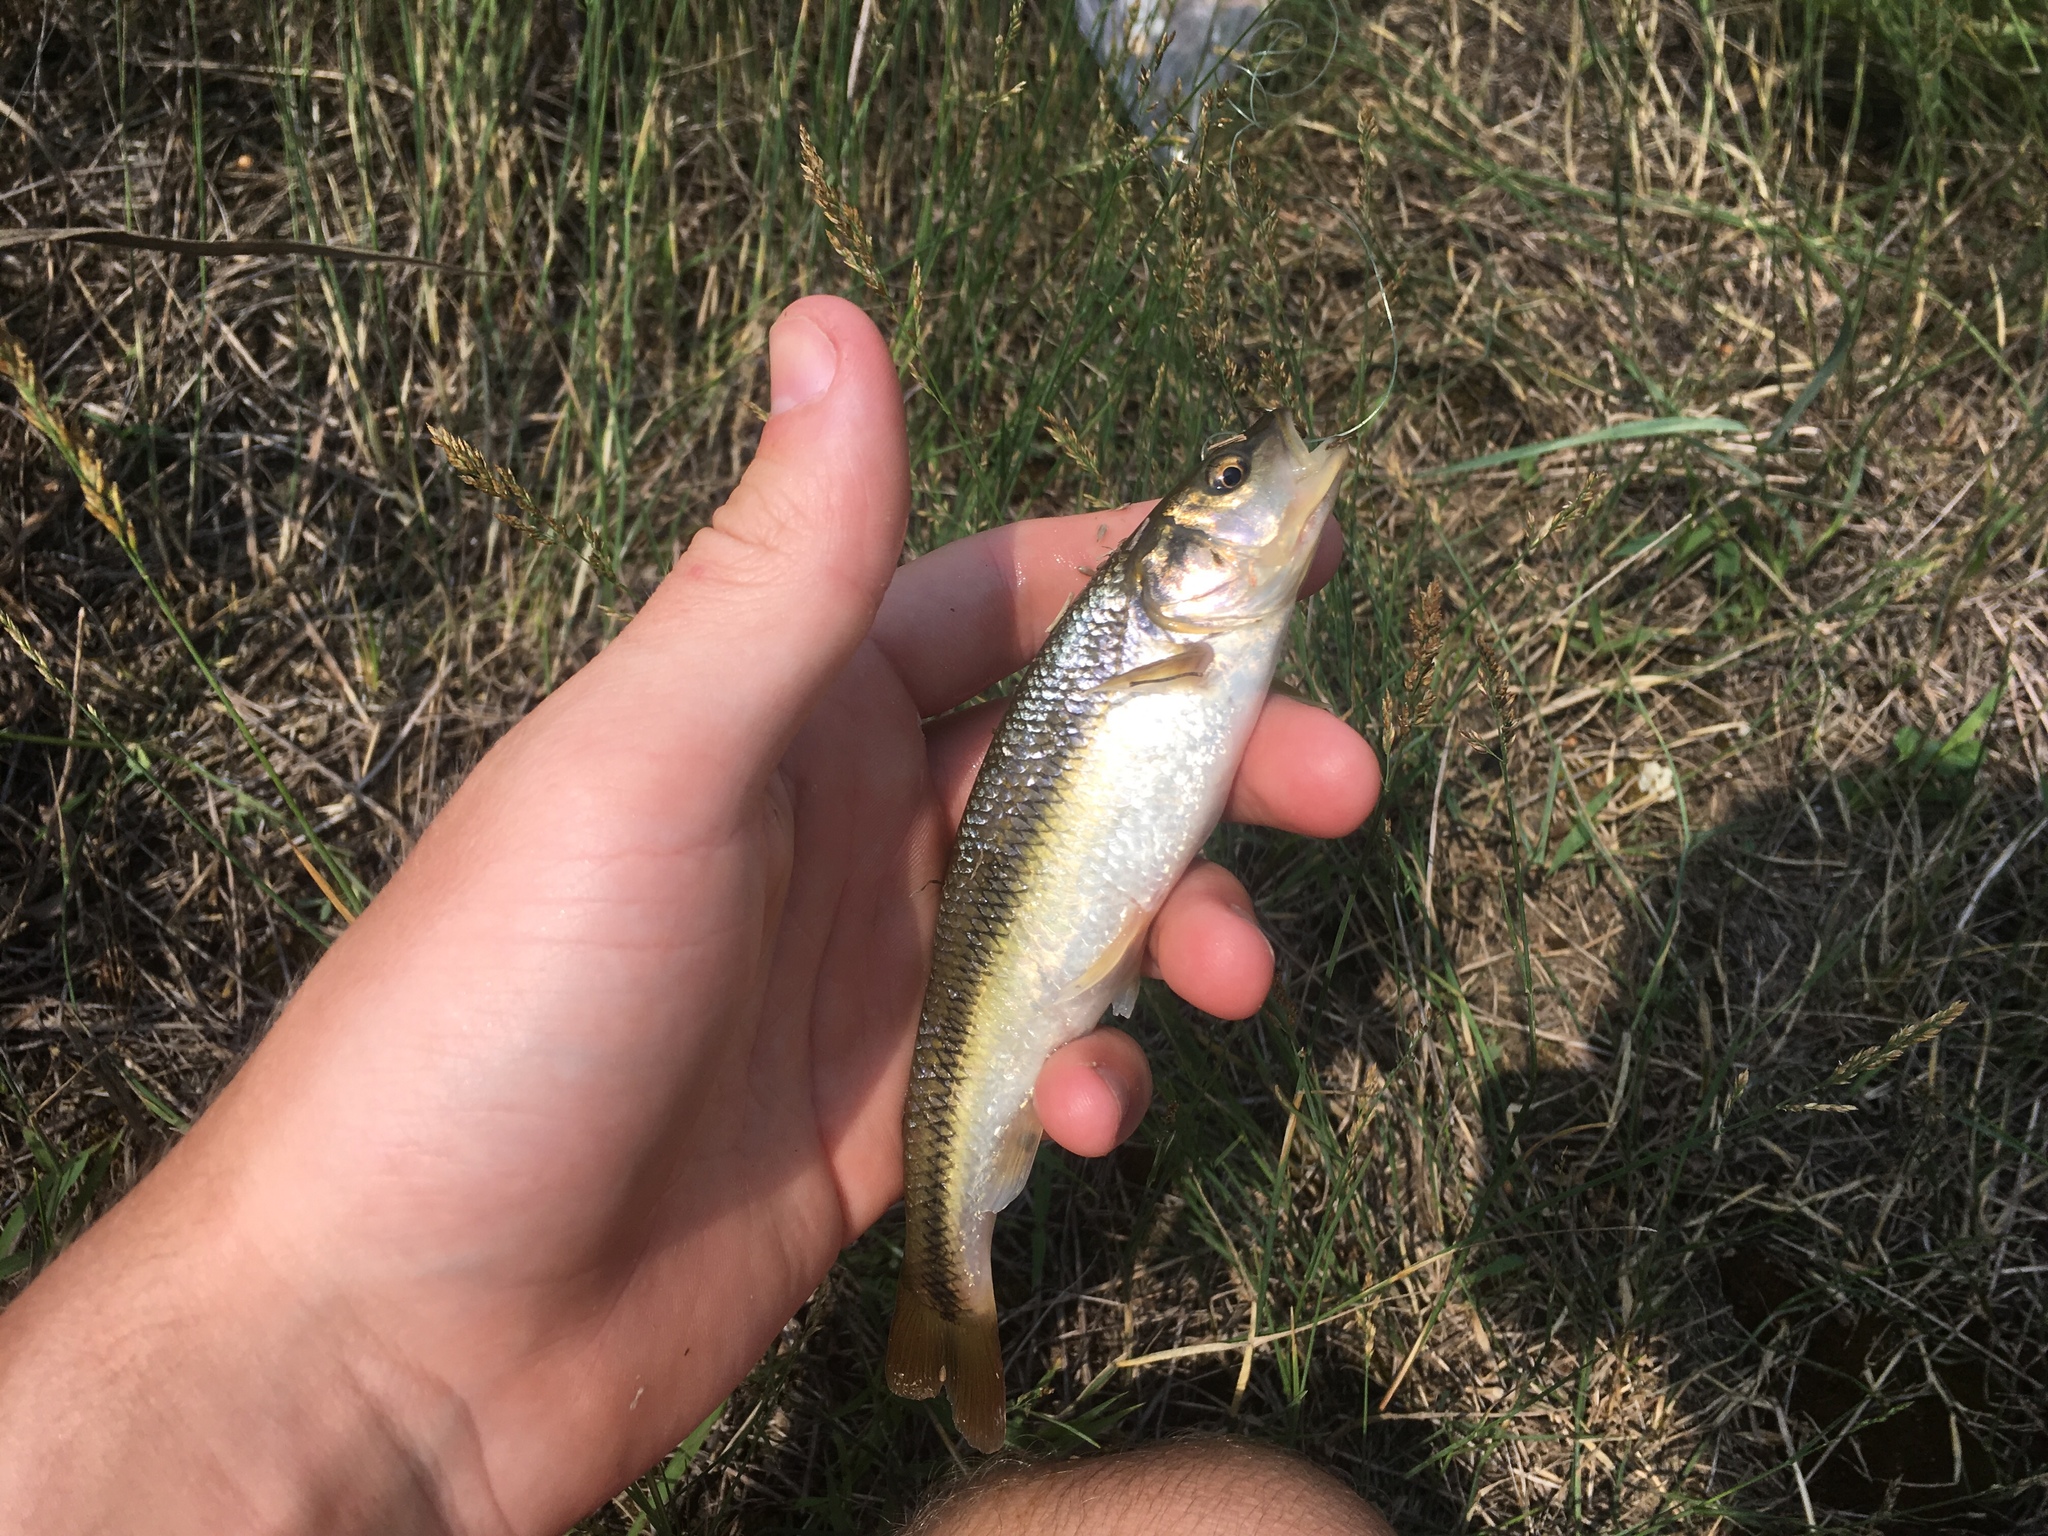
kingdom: Animalia
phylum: Chordata
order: Cypriniformes
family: Cyprinidae
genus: Semotilus
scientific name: Semotilus atromaculatus
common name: Creek chub
